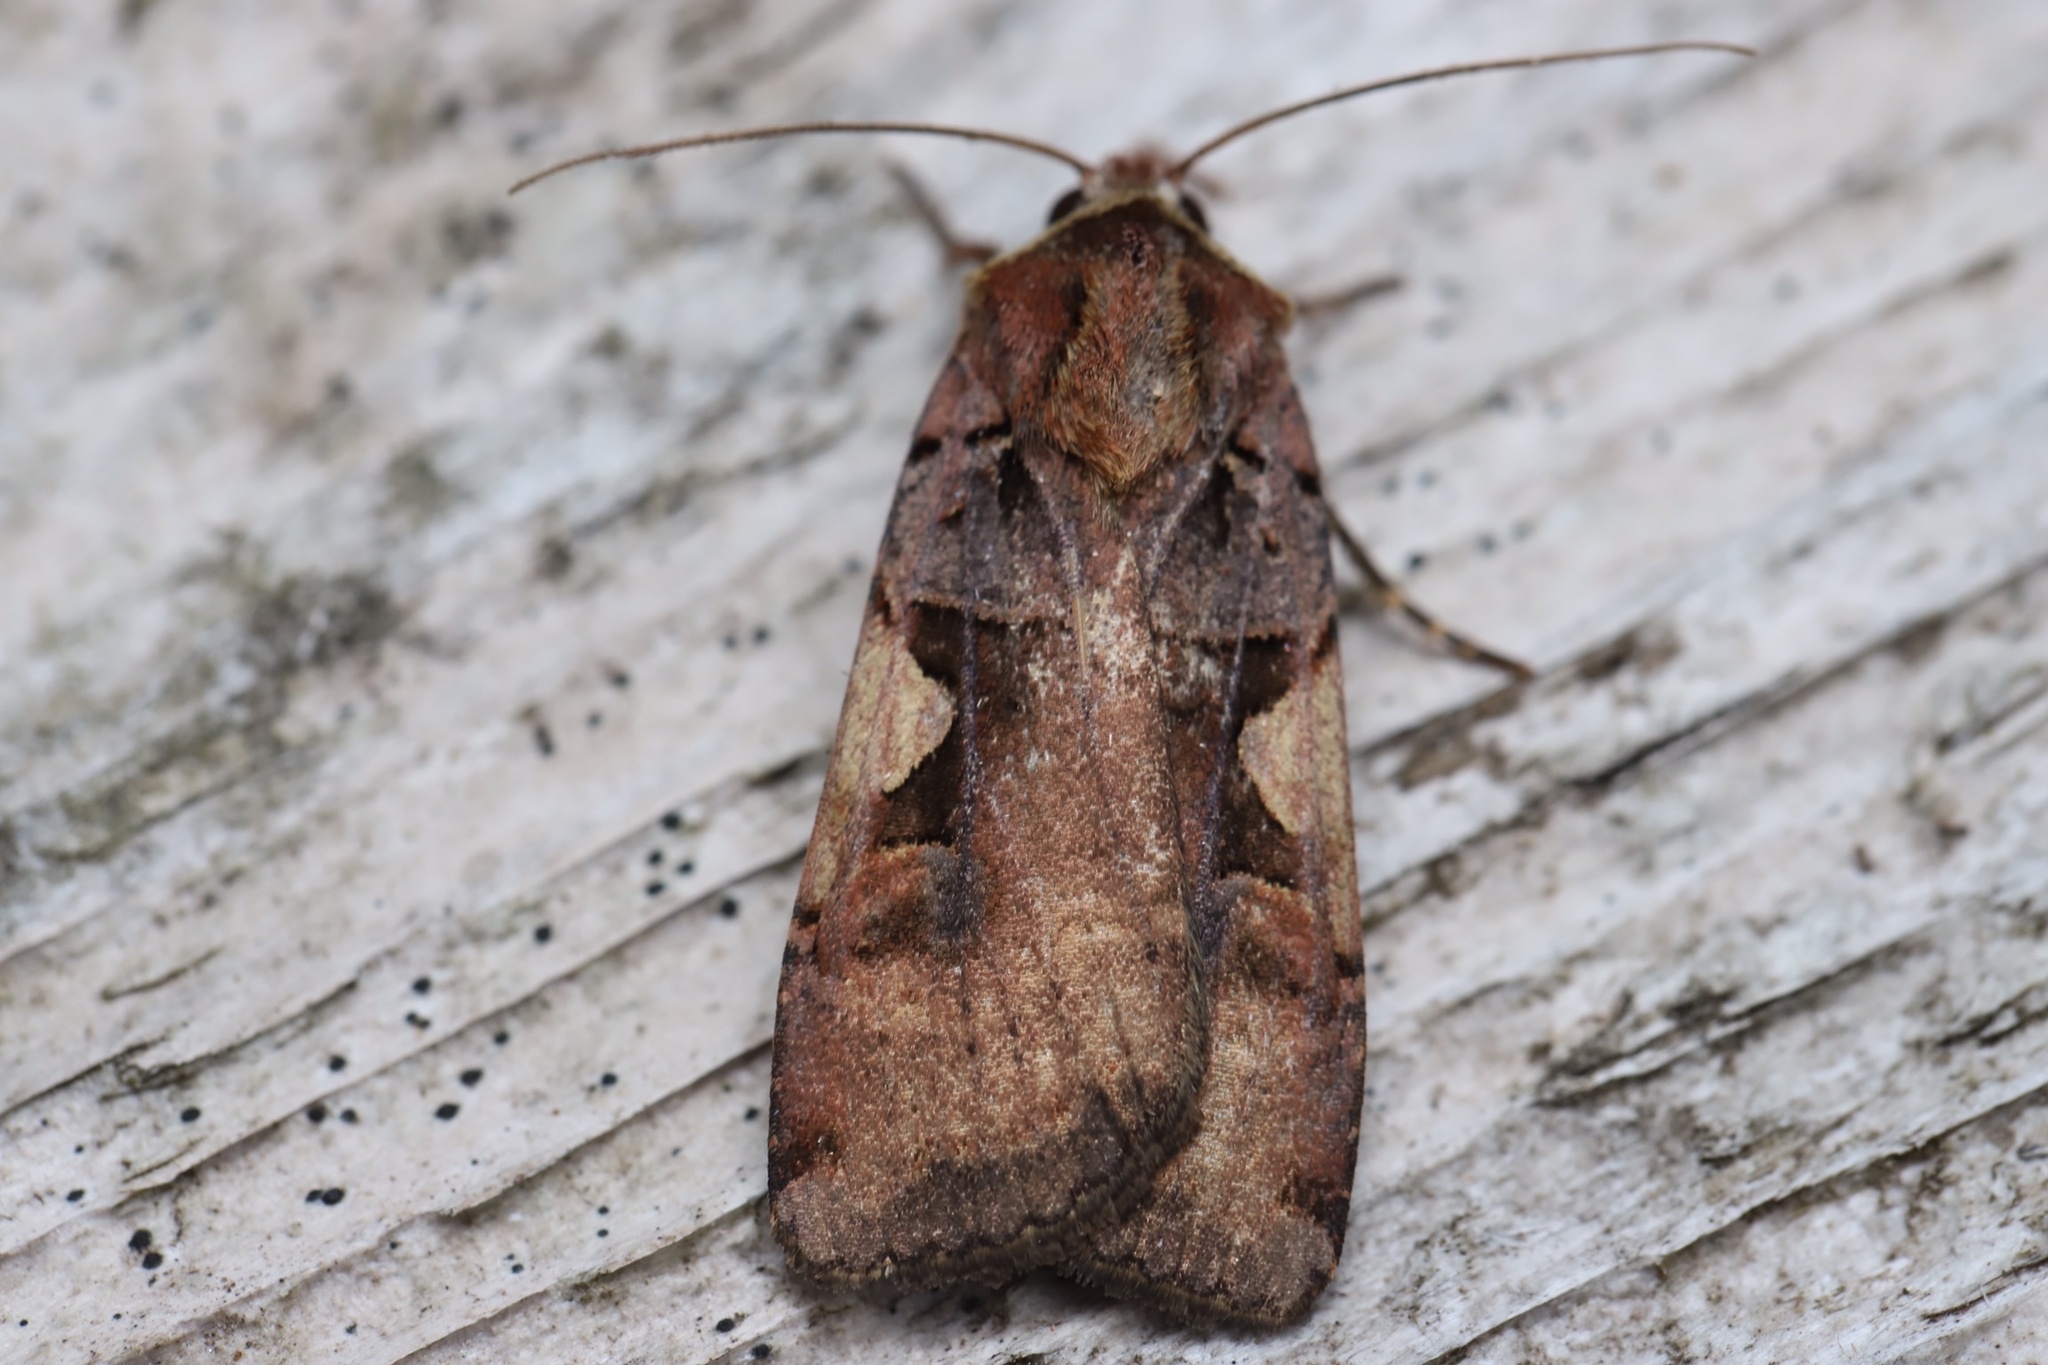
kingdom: Animalia
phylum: Arthropoda
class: Insecta
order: Lepidoptera
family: Noctuidae
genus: Xestia
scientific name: Xestia
